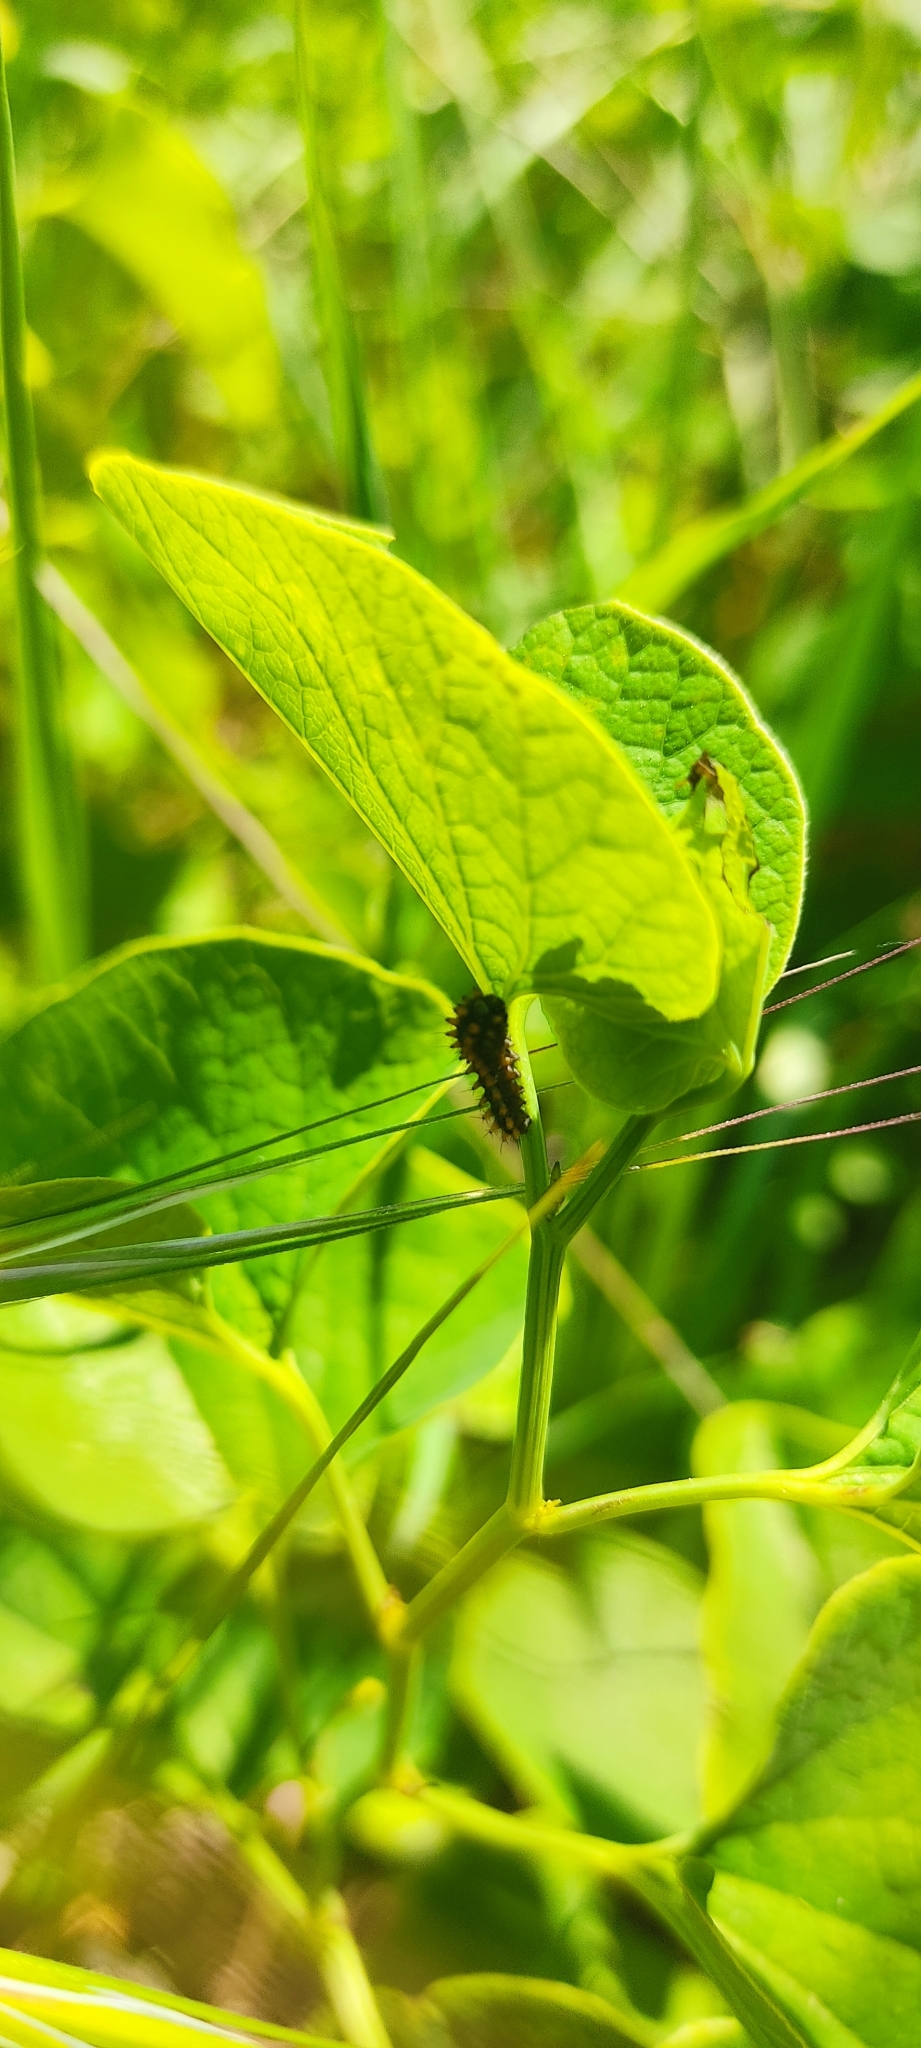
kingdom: Animalia
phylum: Arthropoda
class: Insecta
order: Lepidoptera
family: Papilionidae
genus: Zerynthia
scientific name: Zerynthia polyxena
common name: Southern festoon
